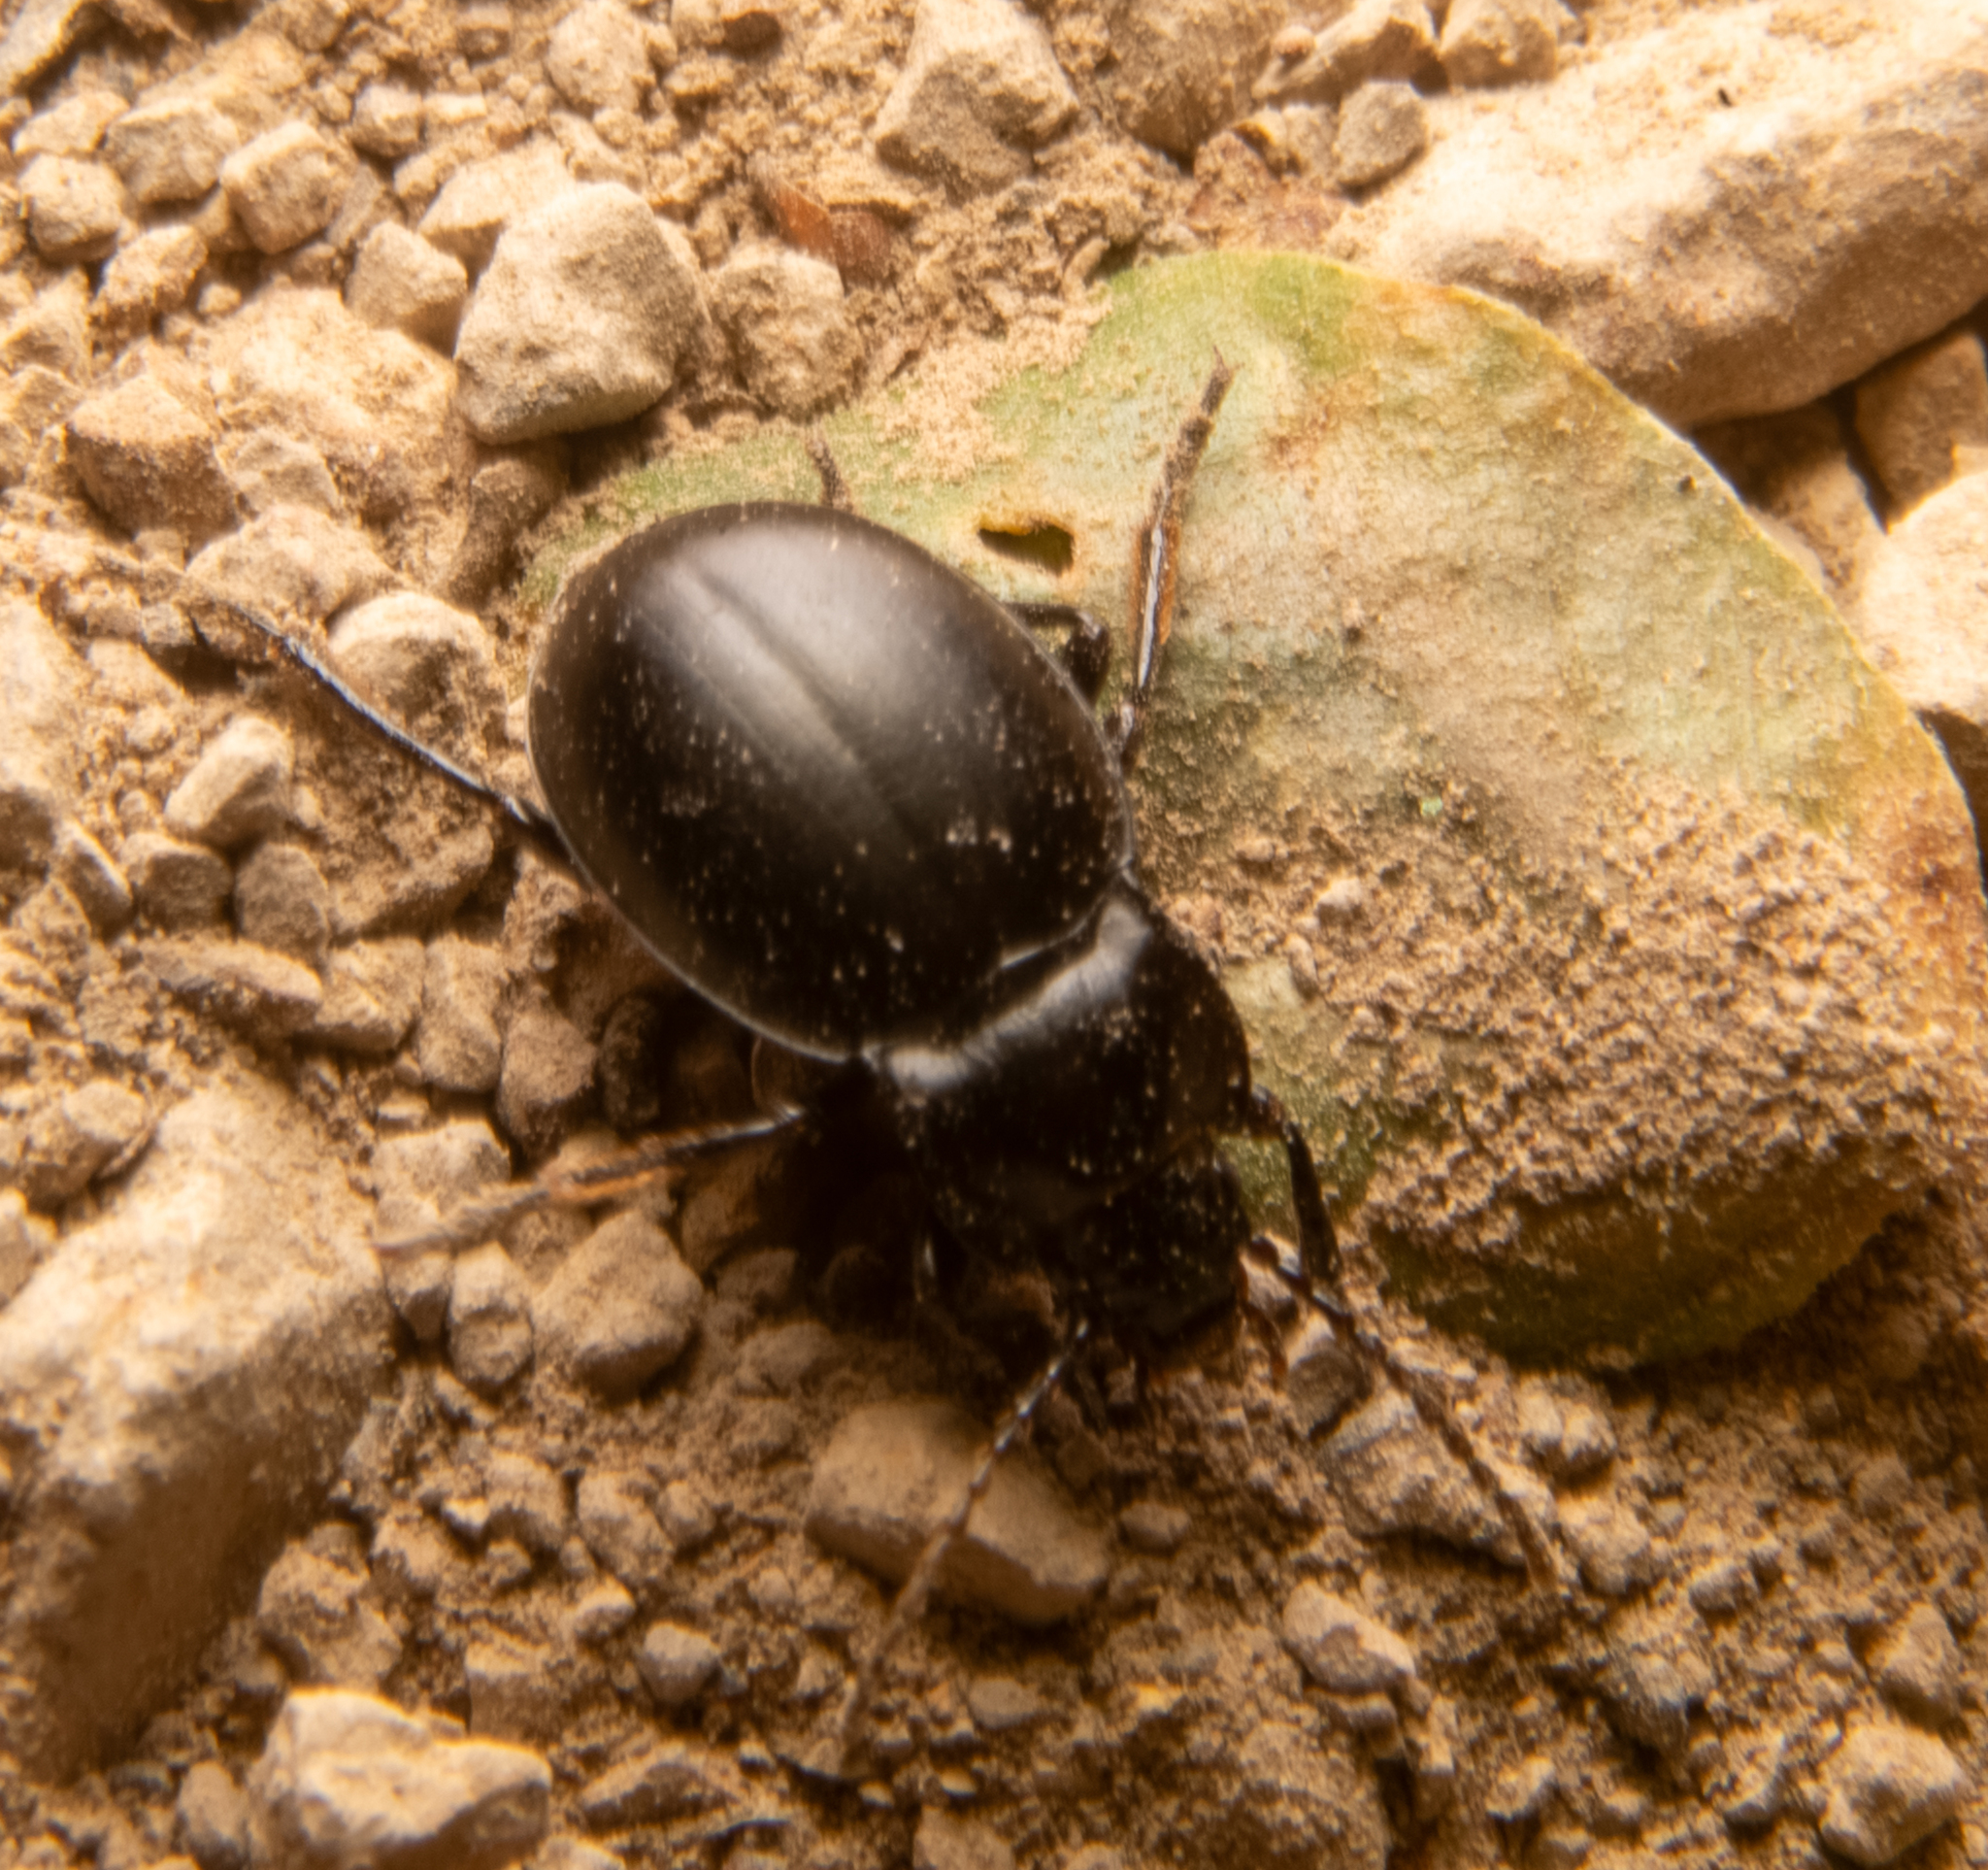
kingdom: Animalia
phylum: Arthropoda
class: Insecta
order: Coleoptera
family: Carabidae
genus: Metrius
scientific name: Metrius contractus
